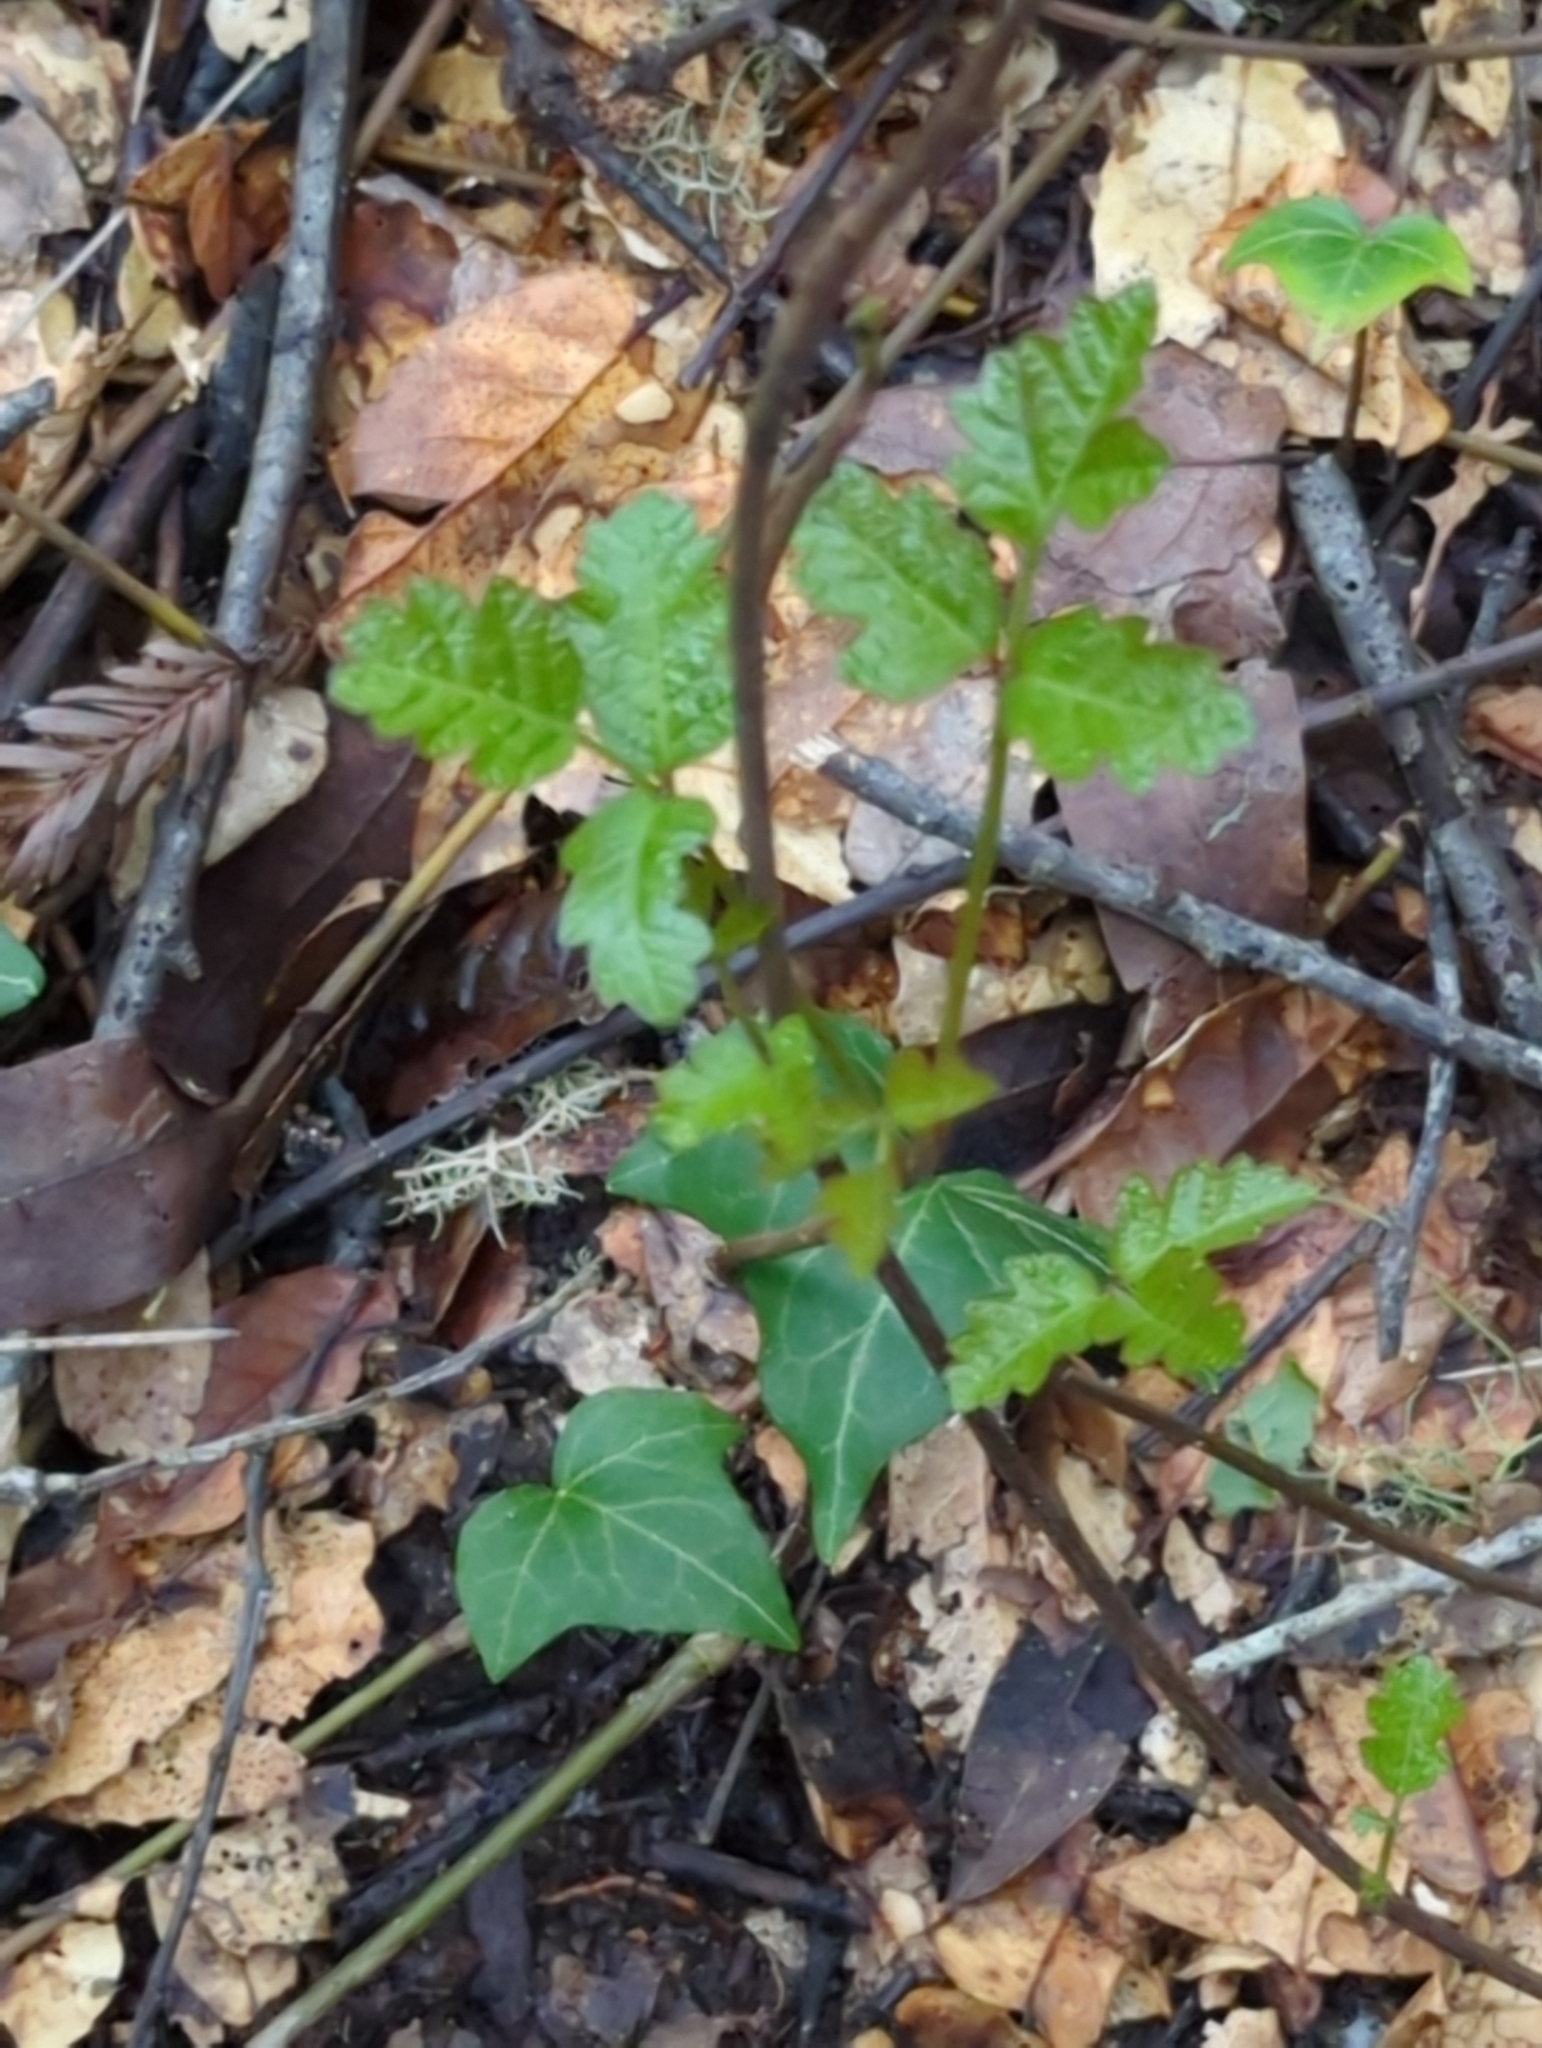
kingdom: Plantae
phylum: Tracheophyta
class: Magnoliopsida
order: Sapindales
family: Anacardiaceae
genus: Toxicodendron
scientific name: Toxicodendron diversilobum
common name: Pacific poison-oak
